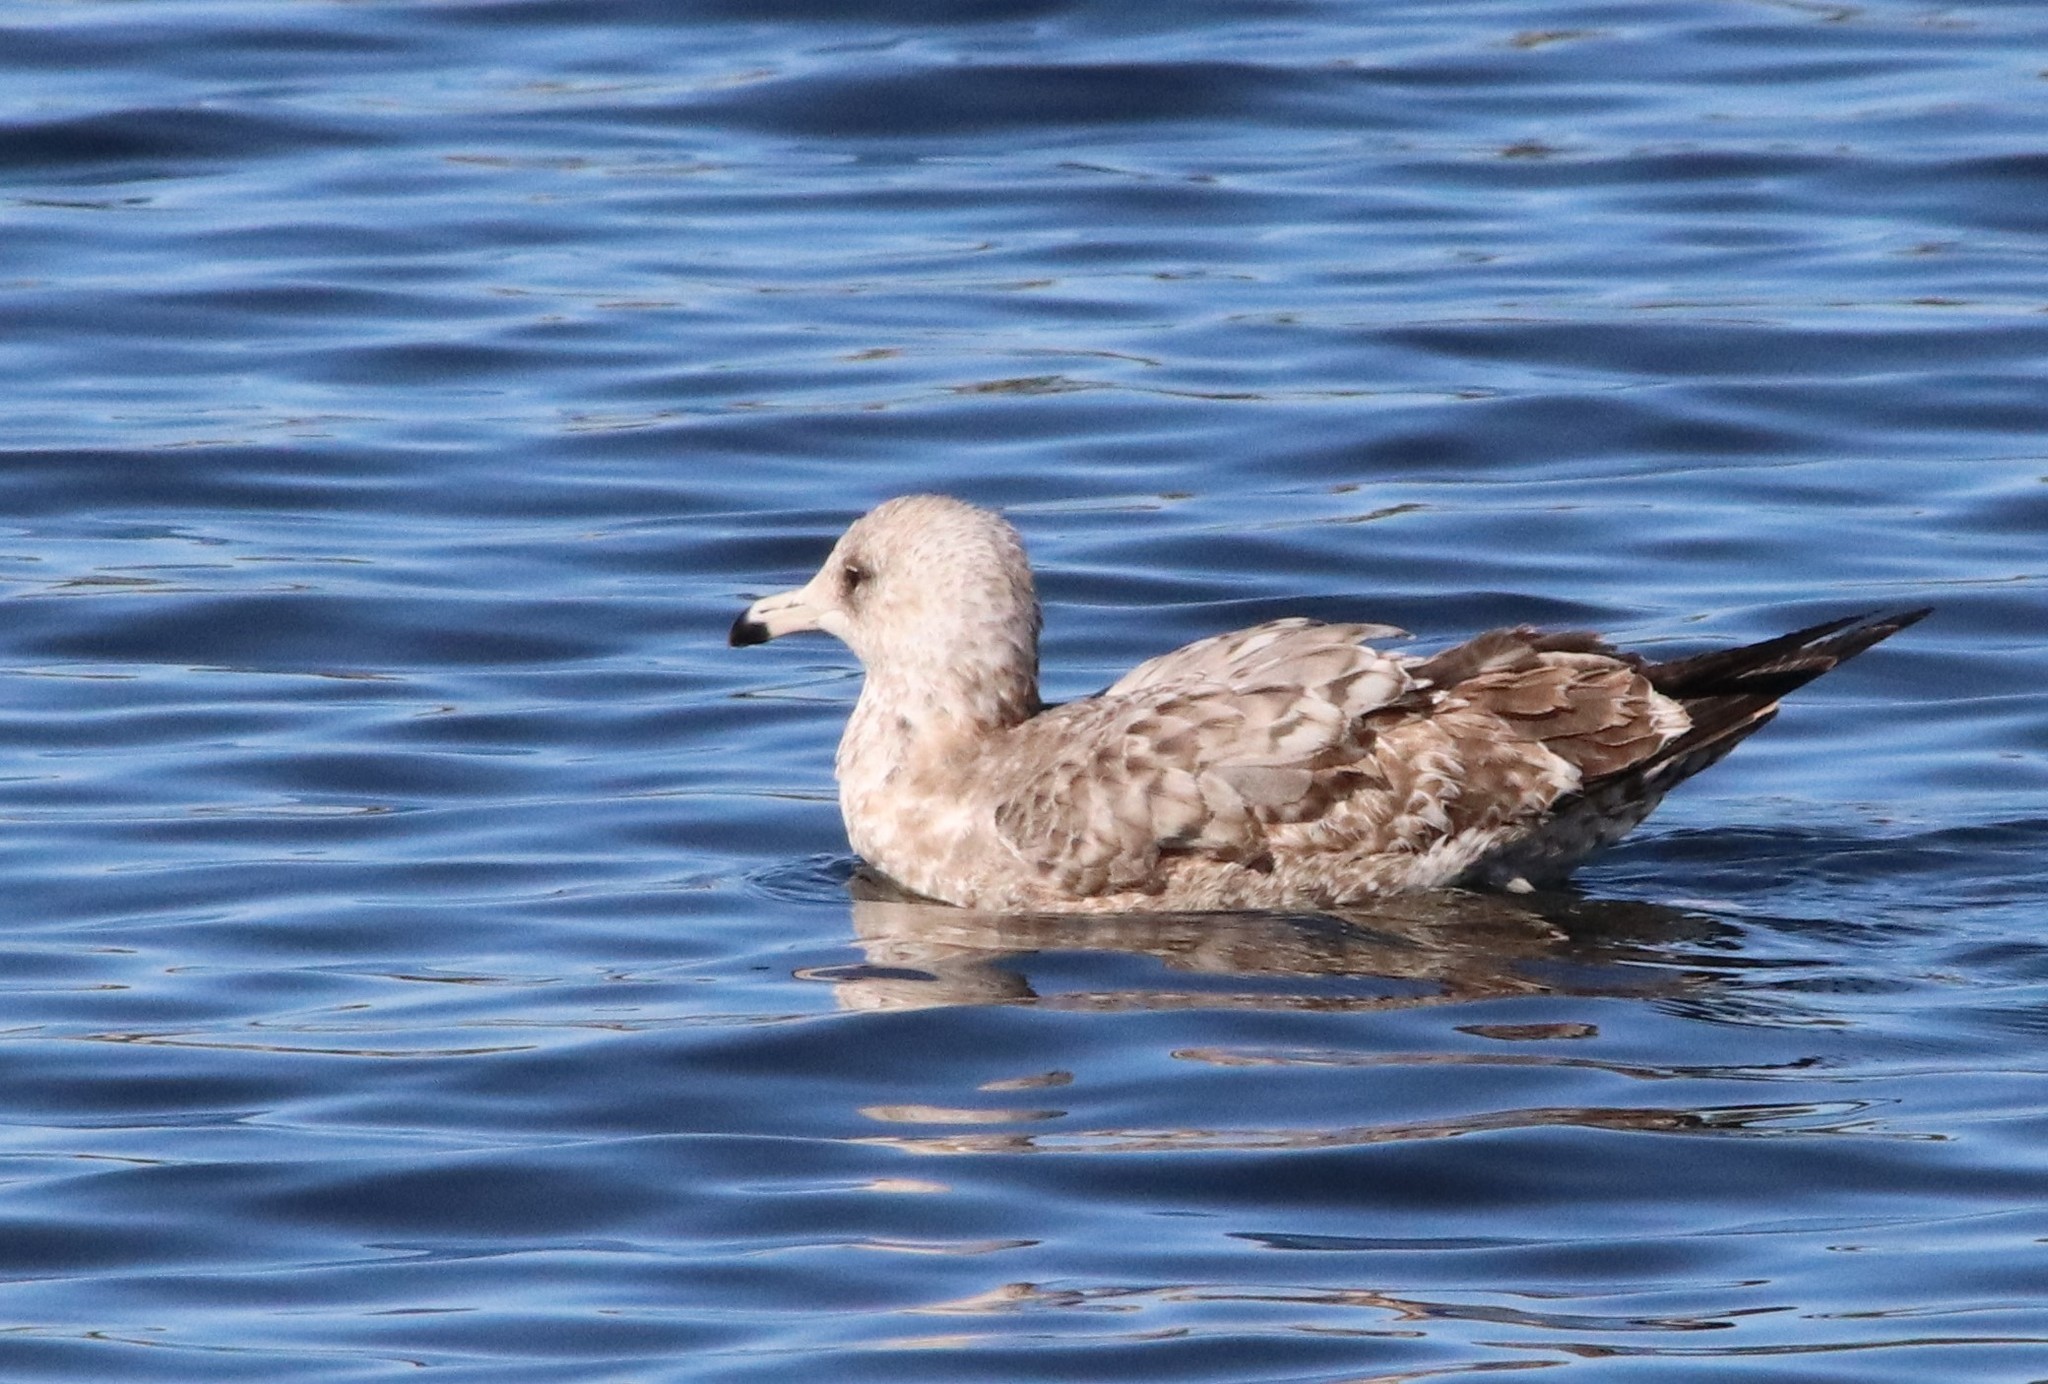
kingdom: Animalia
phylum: Chordata
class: Aves
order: Charadriiformes
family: Laridae
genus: Larus
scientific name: Larus californicus
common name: California gull
